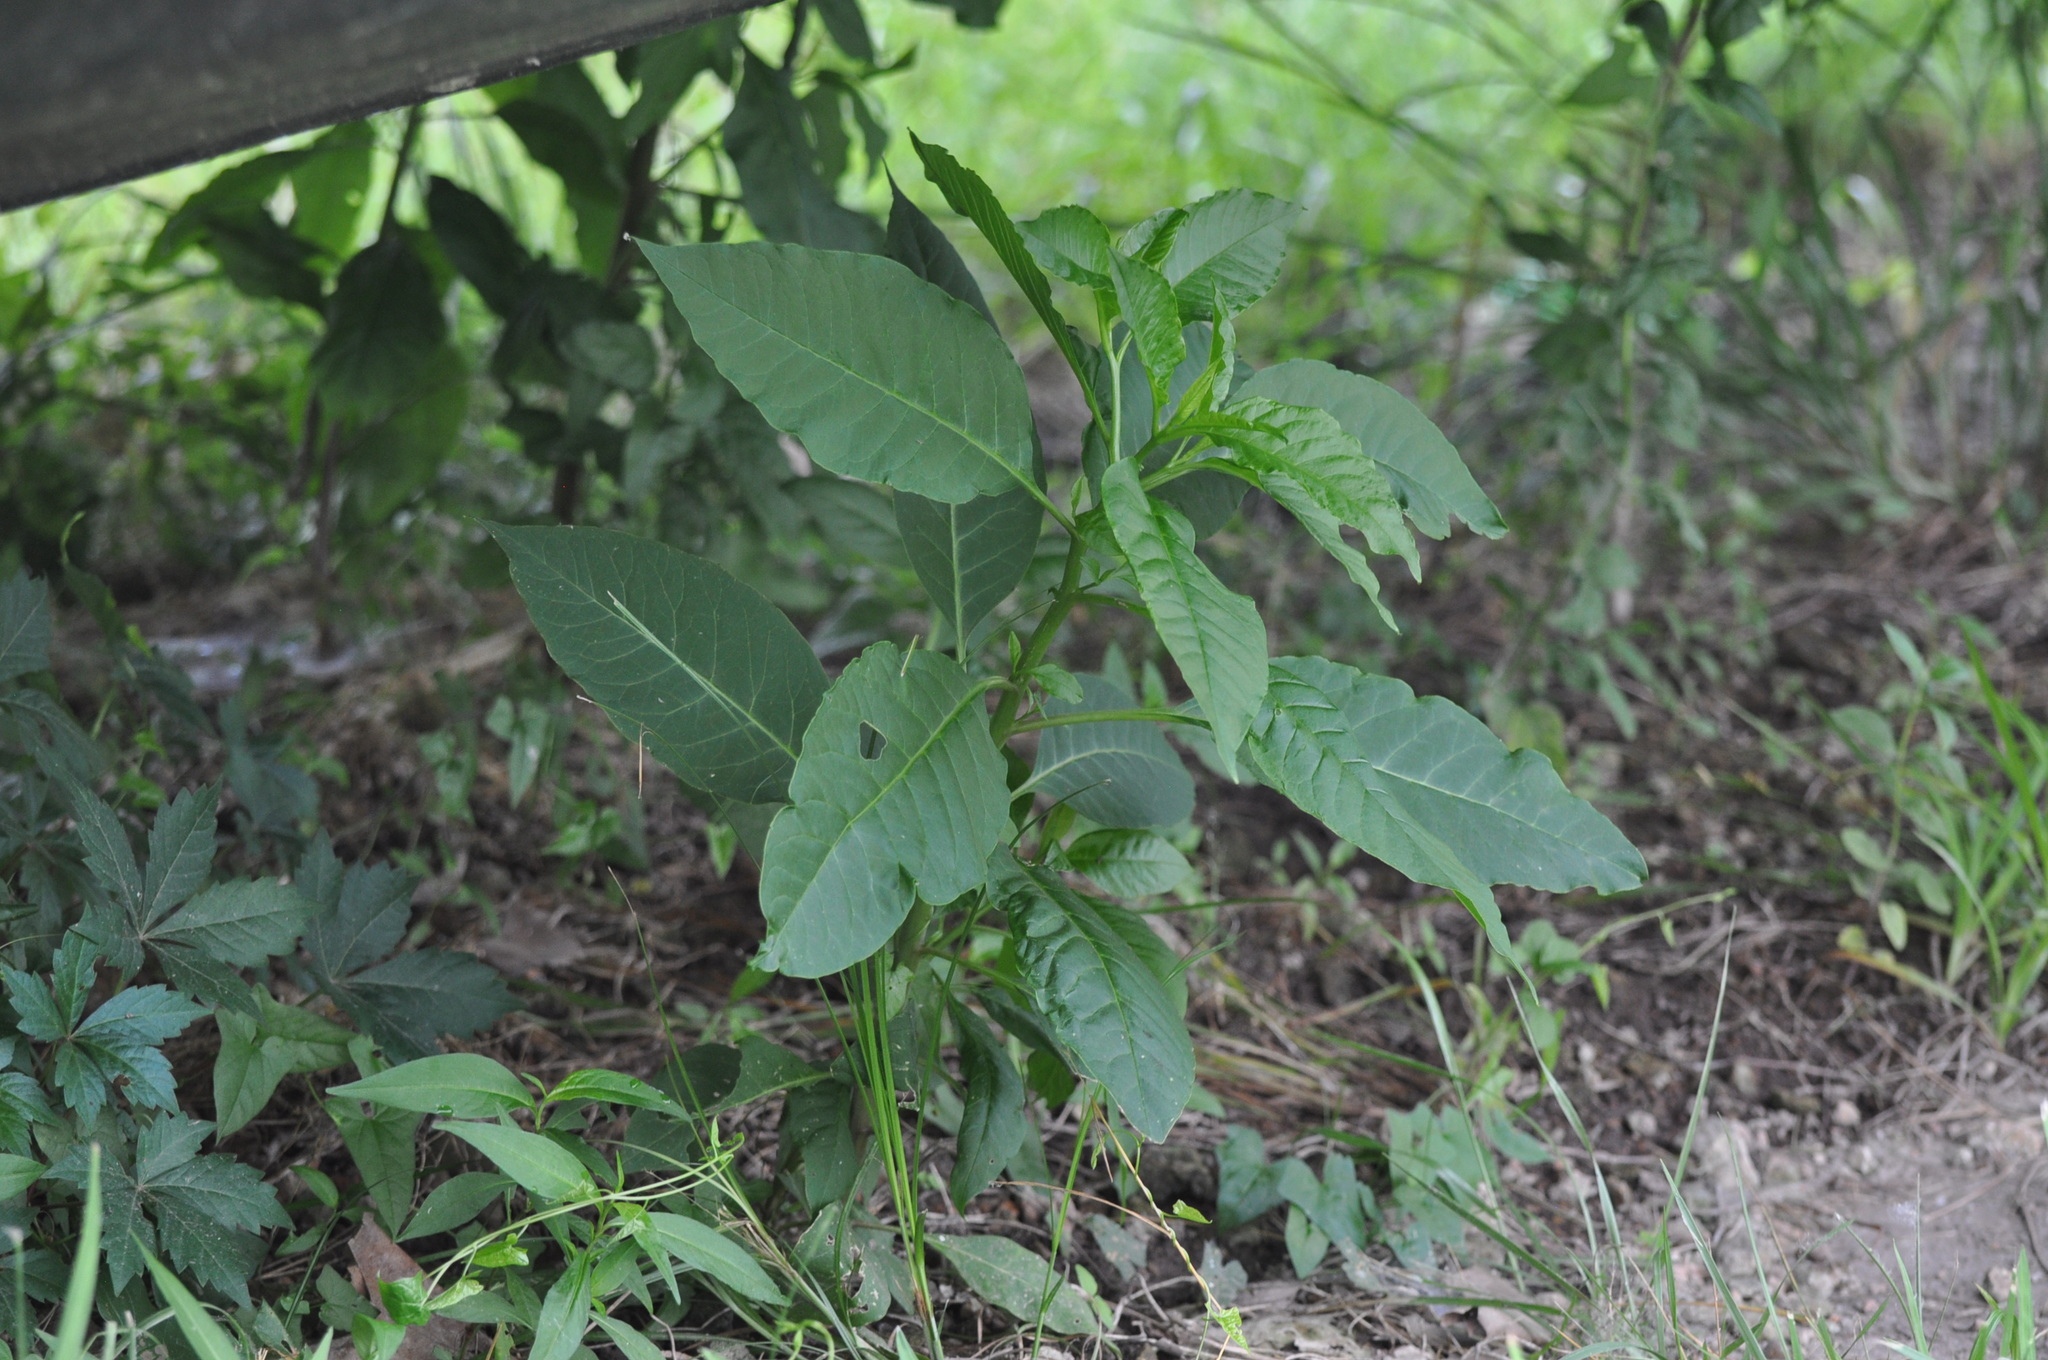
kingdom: Plantae
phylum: Tracheophyta
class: Magnoliopsida
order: Caryophyllales
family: Phytolaccaceae
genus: Phytolacca
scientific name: Phytolacca americana
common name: American pokeweed
